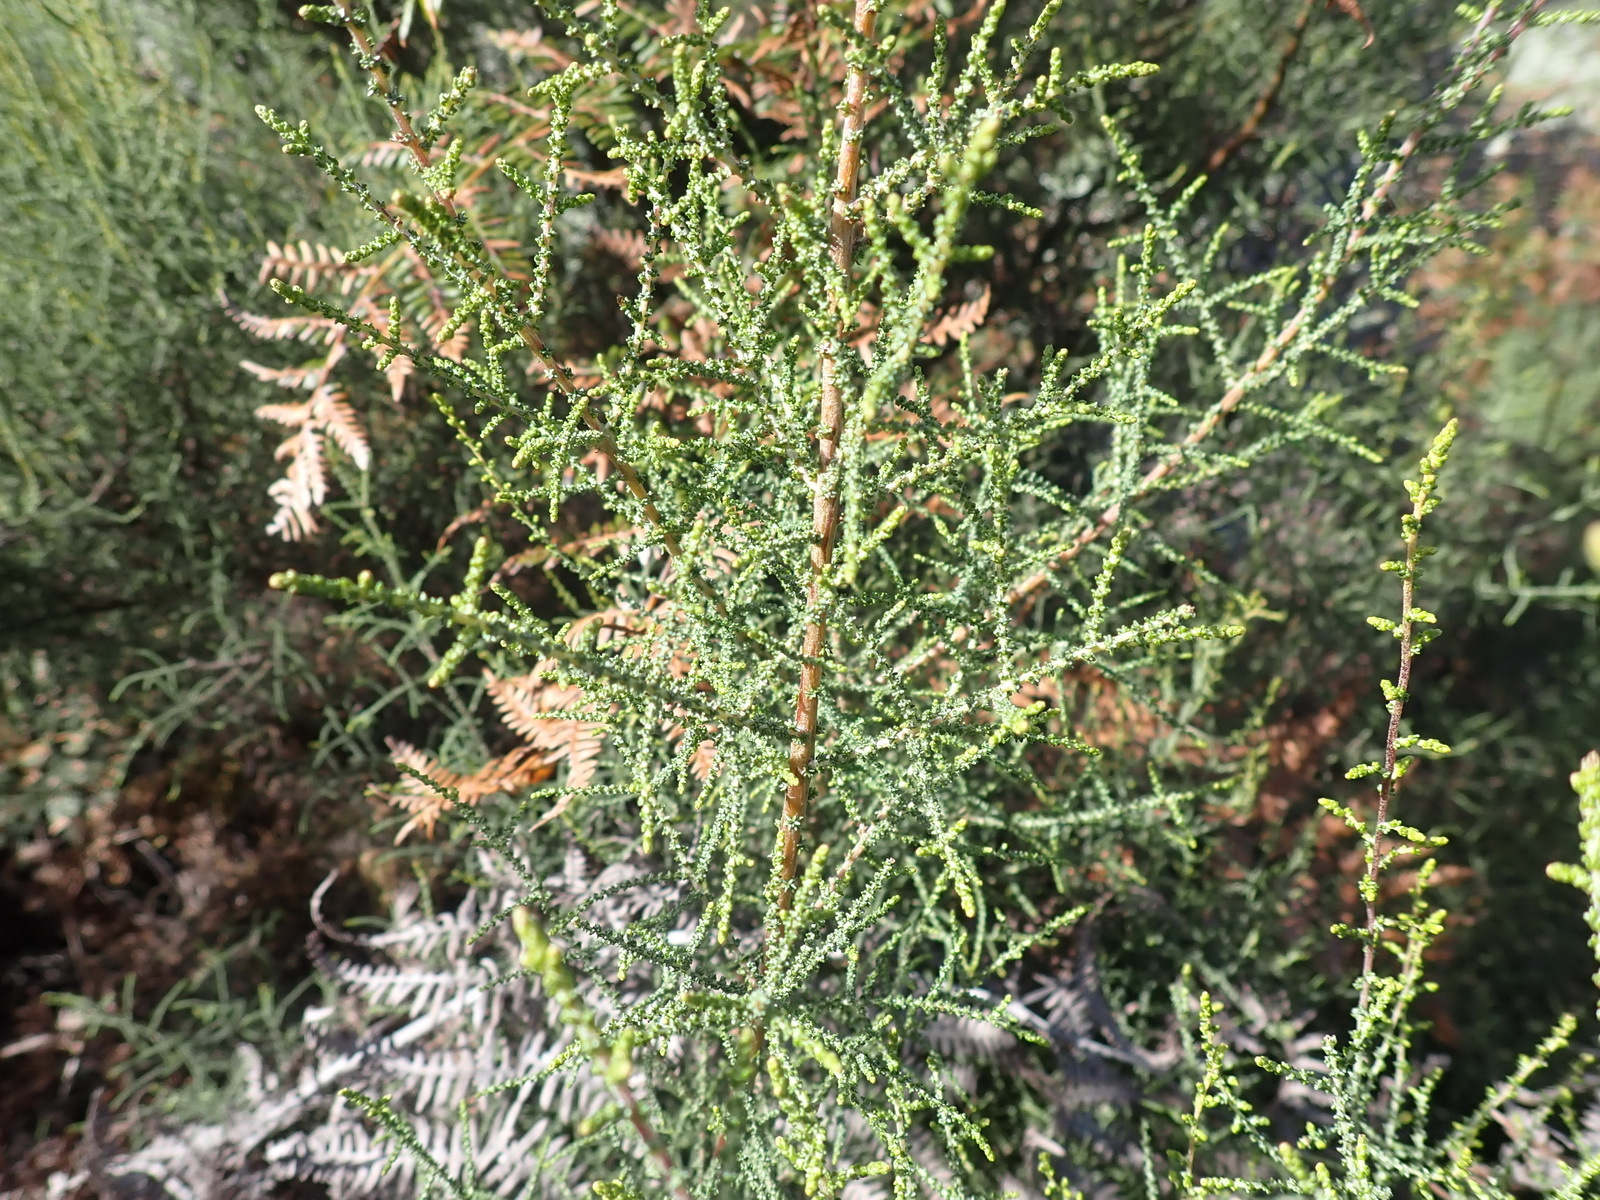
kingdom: Plantae
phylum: Tracheophyta
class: Magnoliopsida
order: Asterales
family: Asteraceae
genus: Seriphium
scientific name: Seriphium plumosum
